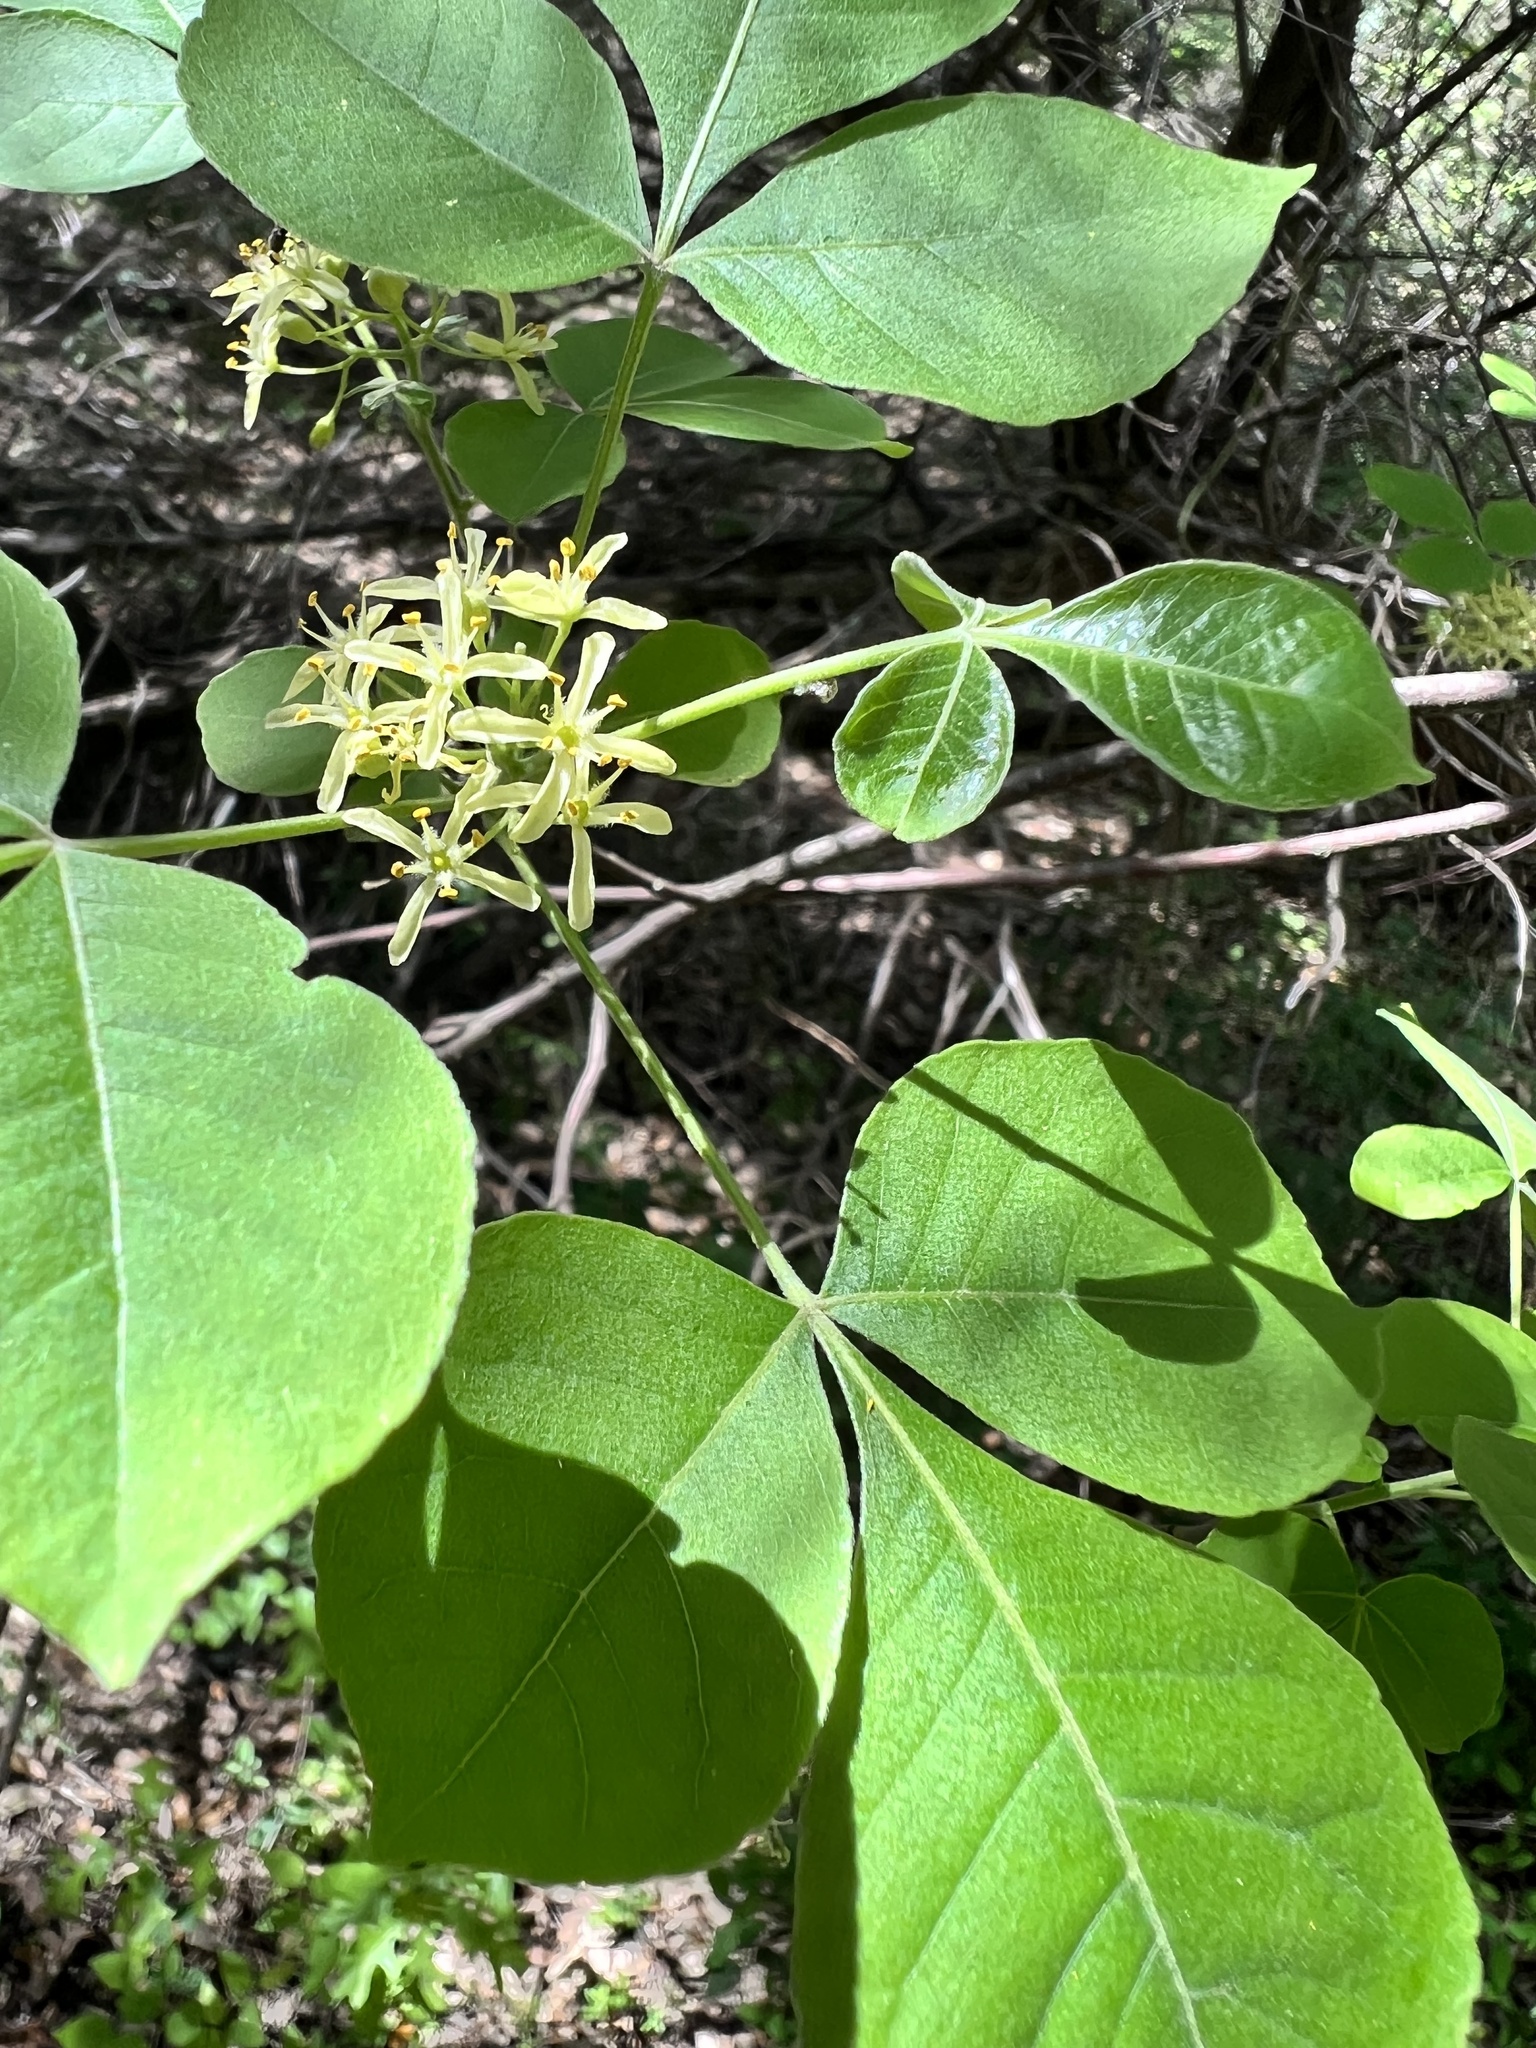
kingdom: Plantae
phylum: Tracheophyta
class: Magnoliopsida
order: Sapindales
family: Rutaceae
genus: Ptelea
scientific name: Ptelea trifoliata
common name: Common hop-tree
